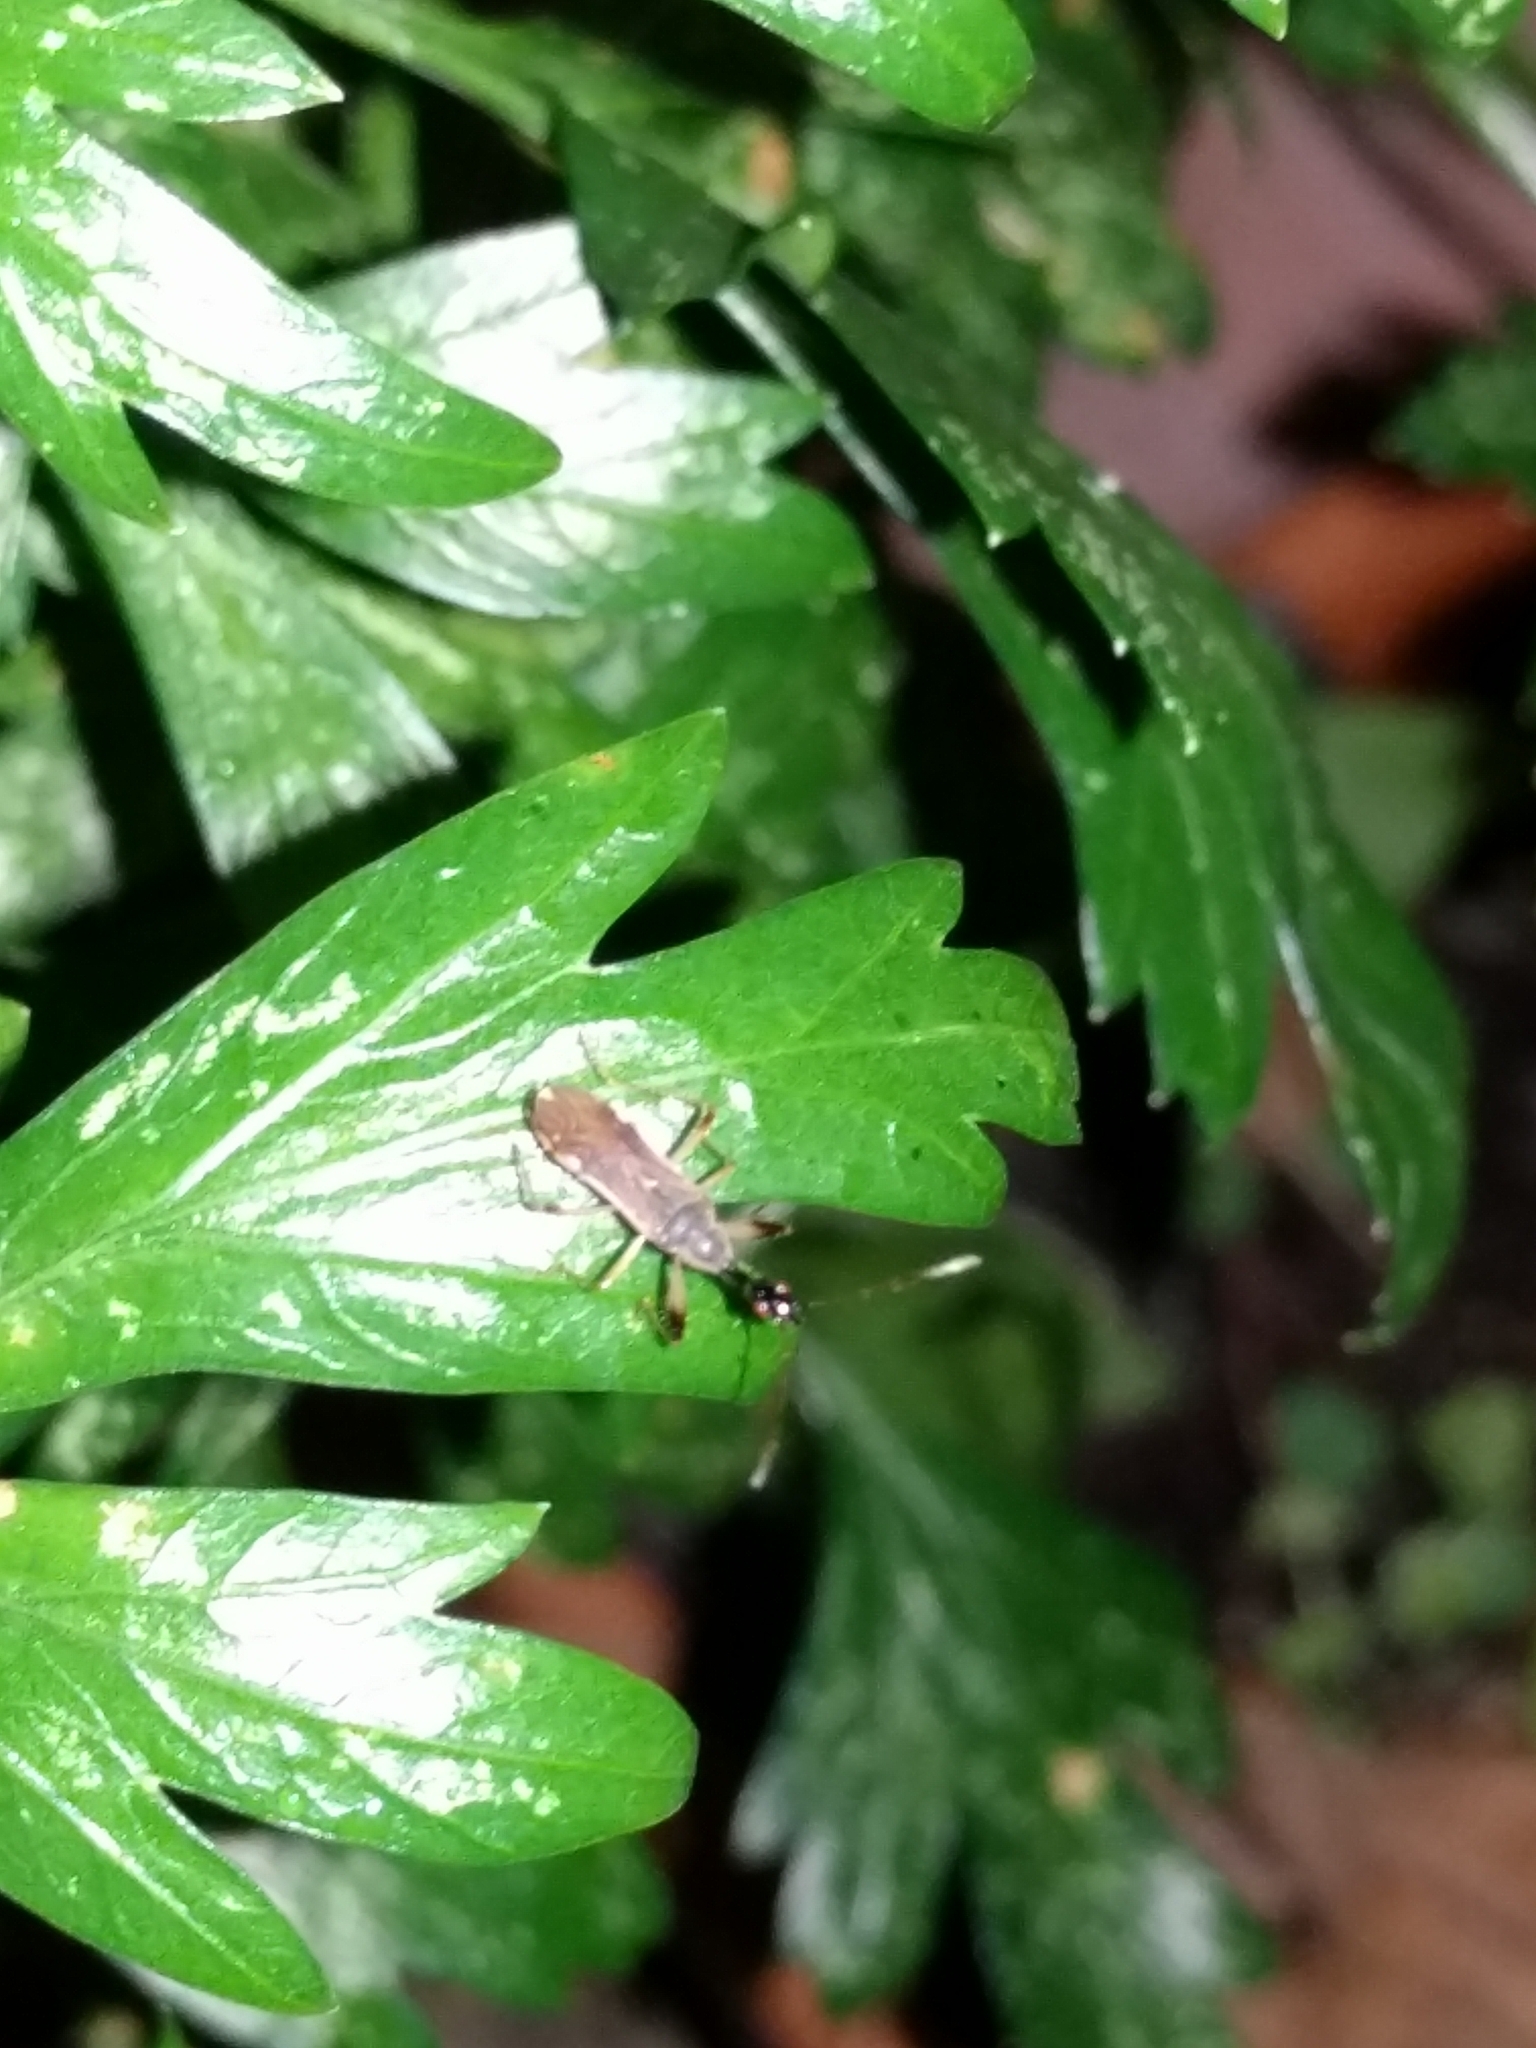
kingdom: Animalia
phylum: Arthropoda
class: Insecta
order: Hemiptera
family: Rhyparochromidae
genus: Myodocha
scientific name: Myodocha serripes
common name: Long-necked seed bug
